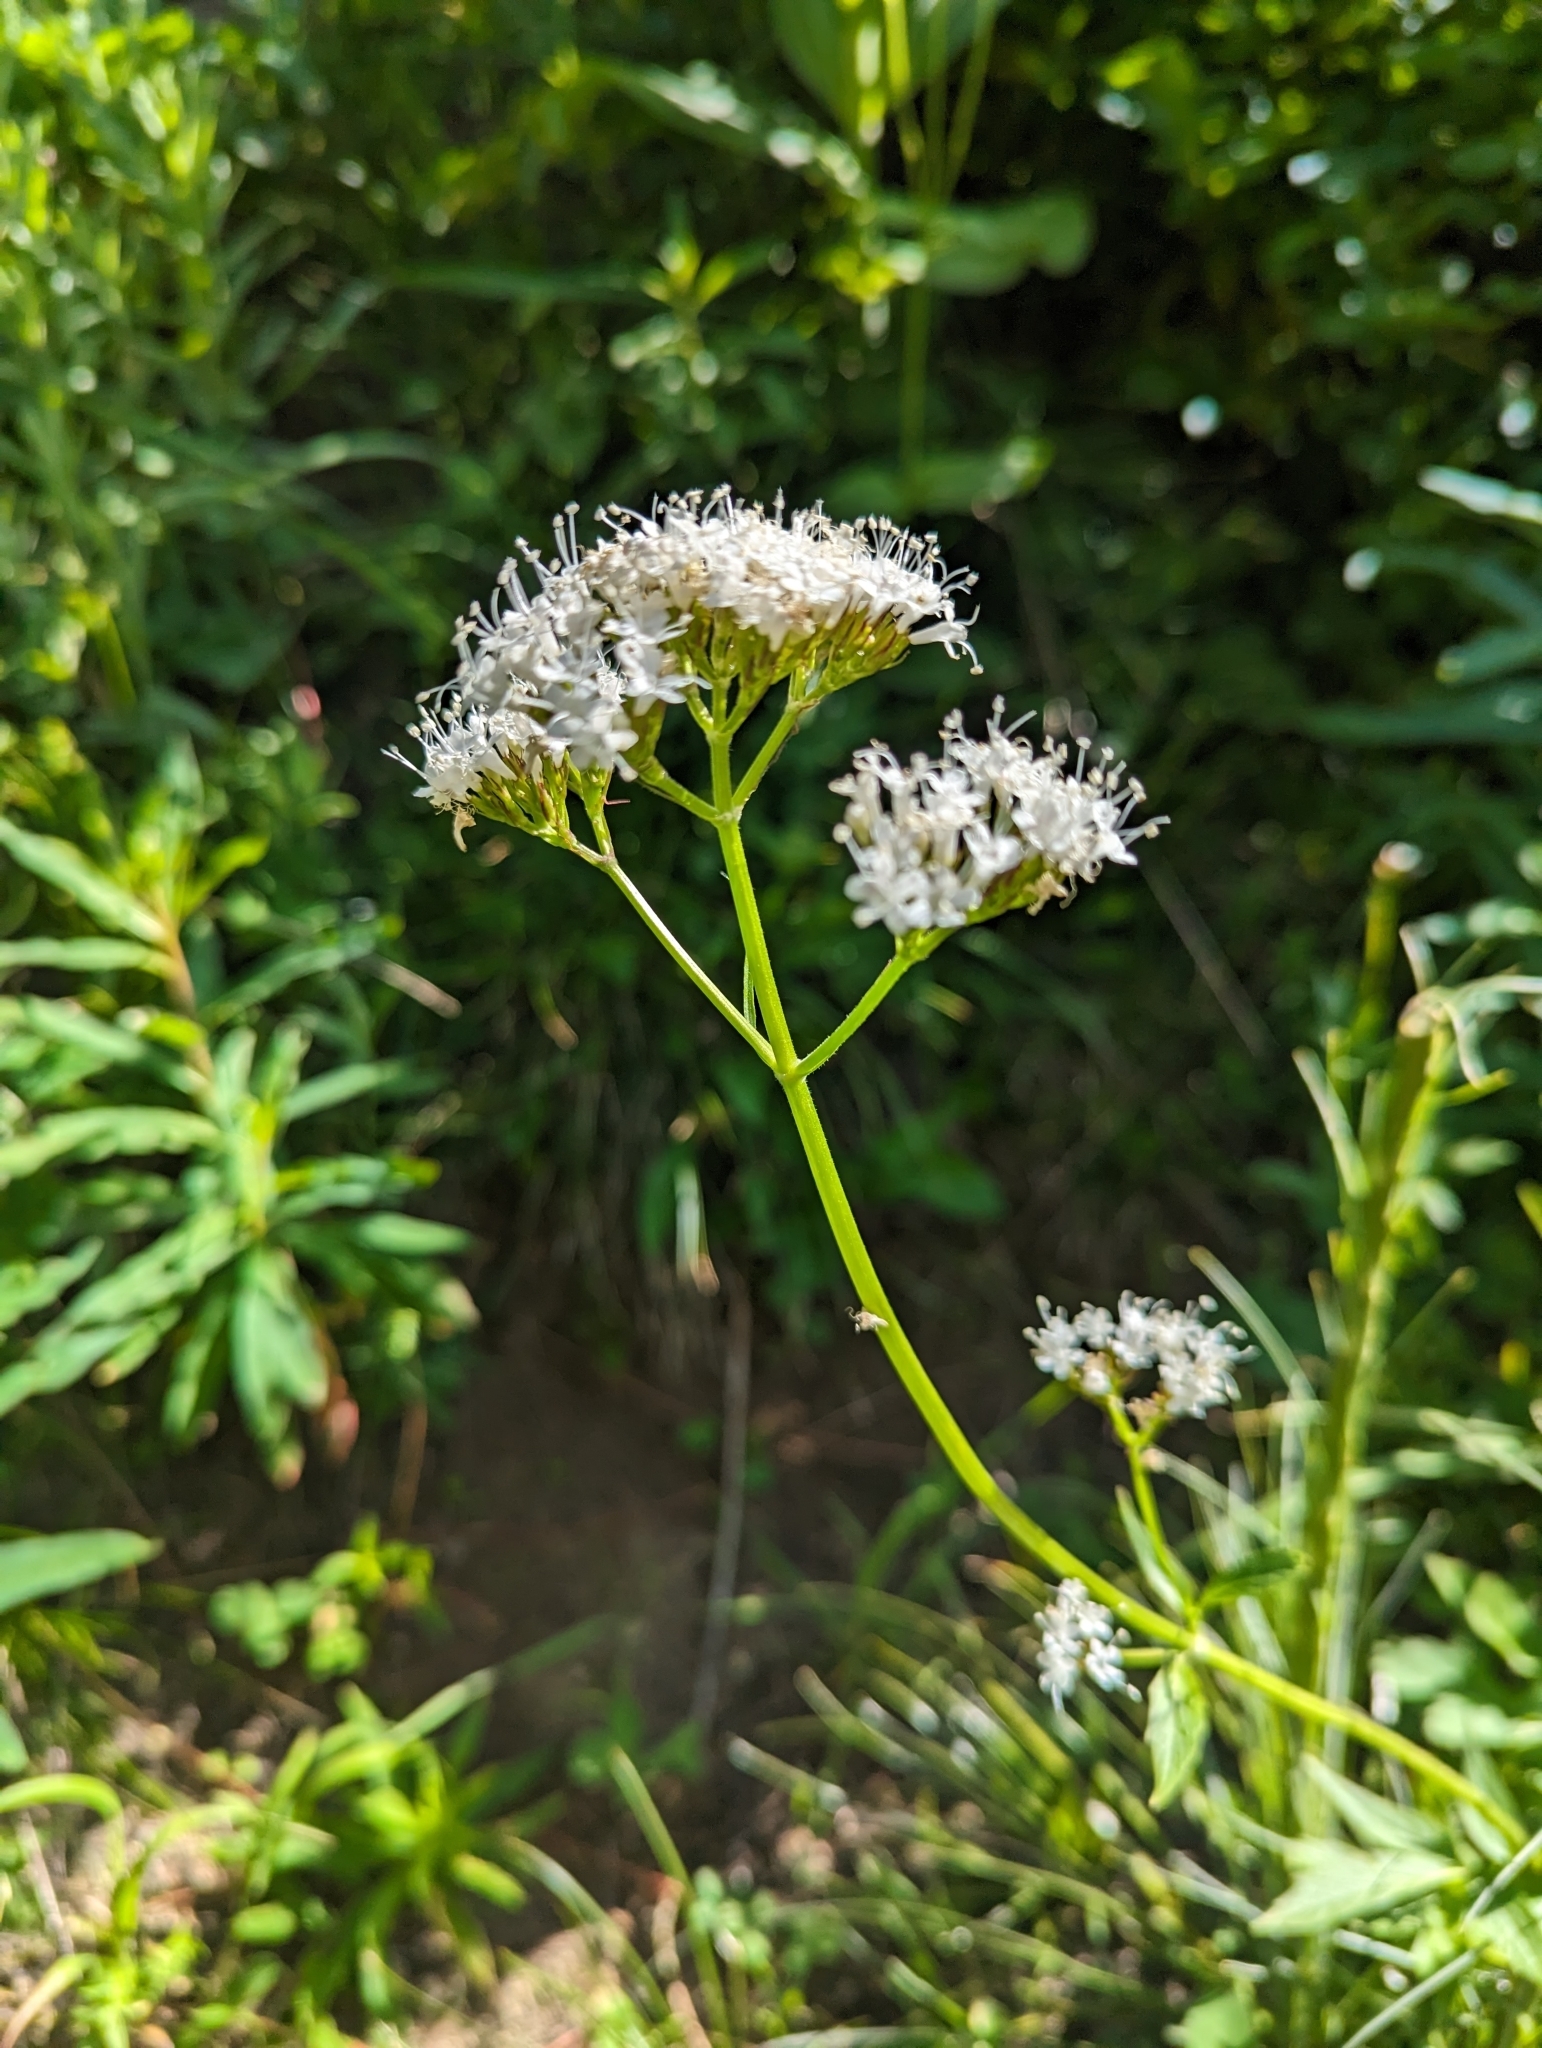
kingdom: Plantae
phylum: Tracheophyta
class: Magnoliopsida
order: Dipsacales
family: Caprifoliaceae
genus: Valeriana
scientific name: Valeriana sitchensis
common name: Pacific valerian
